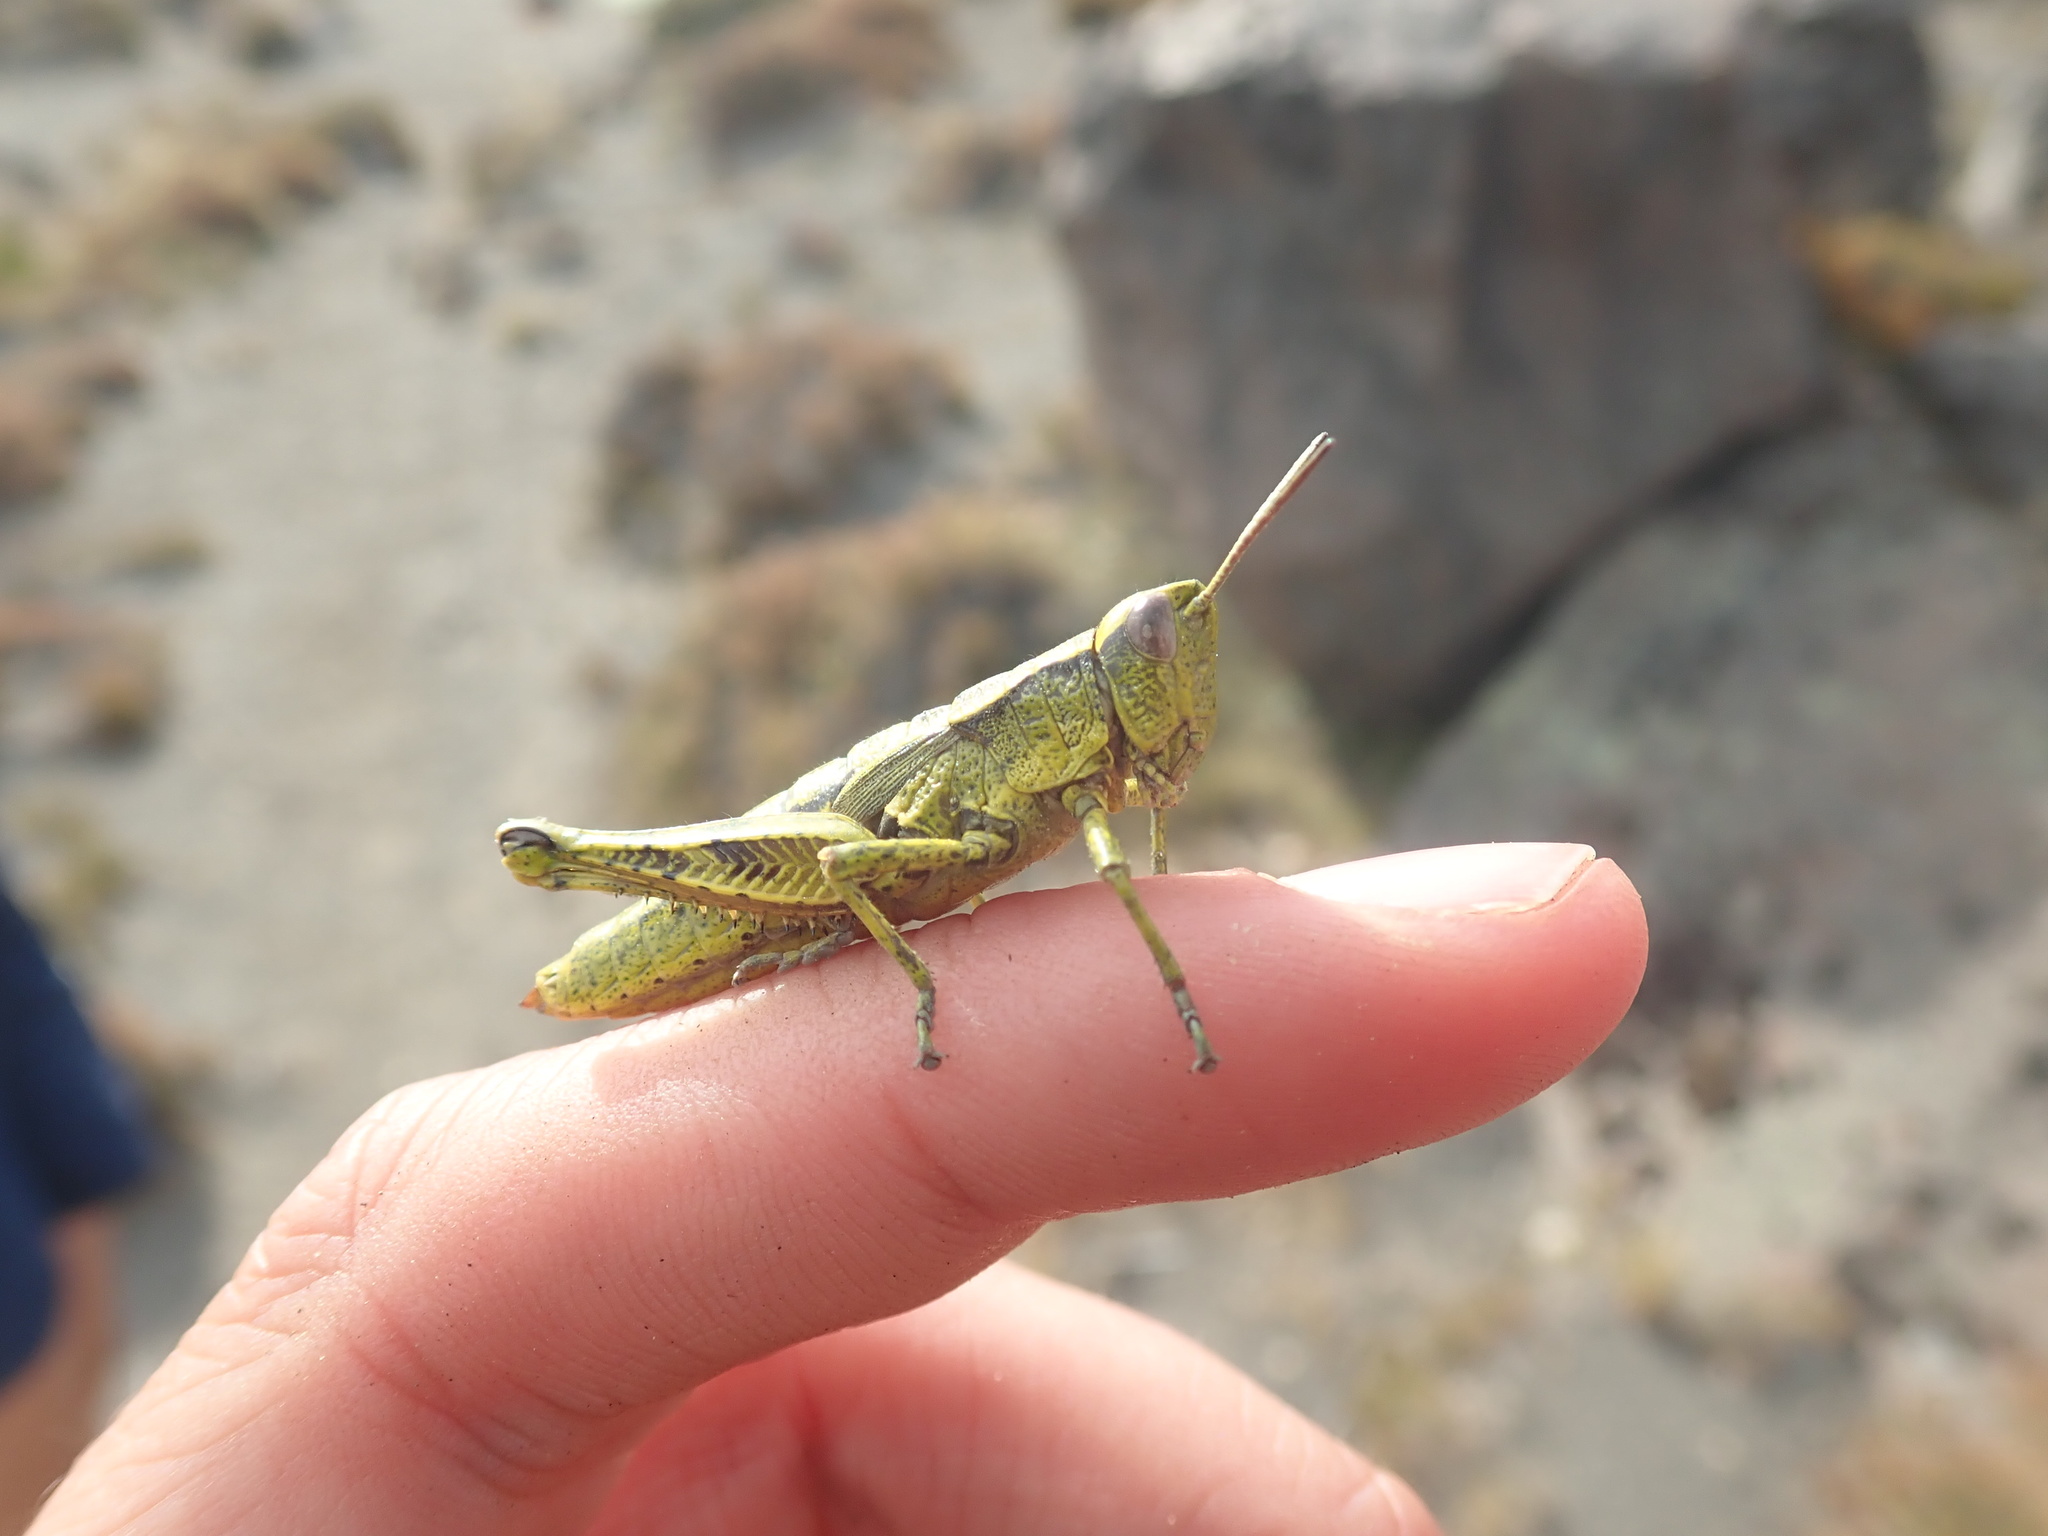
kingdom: Animalia
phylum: Arthropoda
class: Insecta
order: Orthoptera
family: Acrididae
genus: Sigaus
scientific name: Sigaus piliferus
